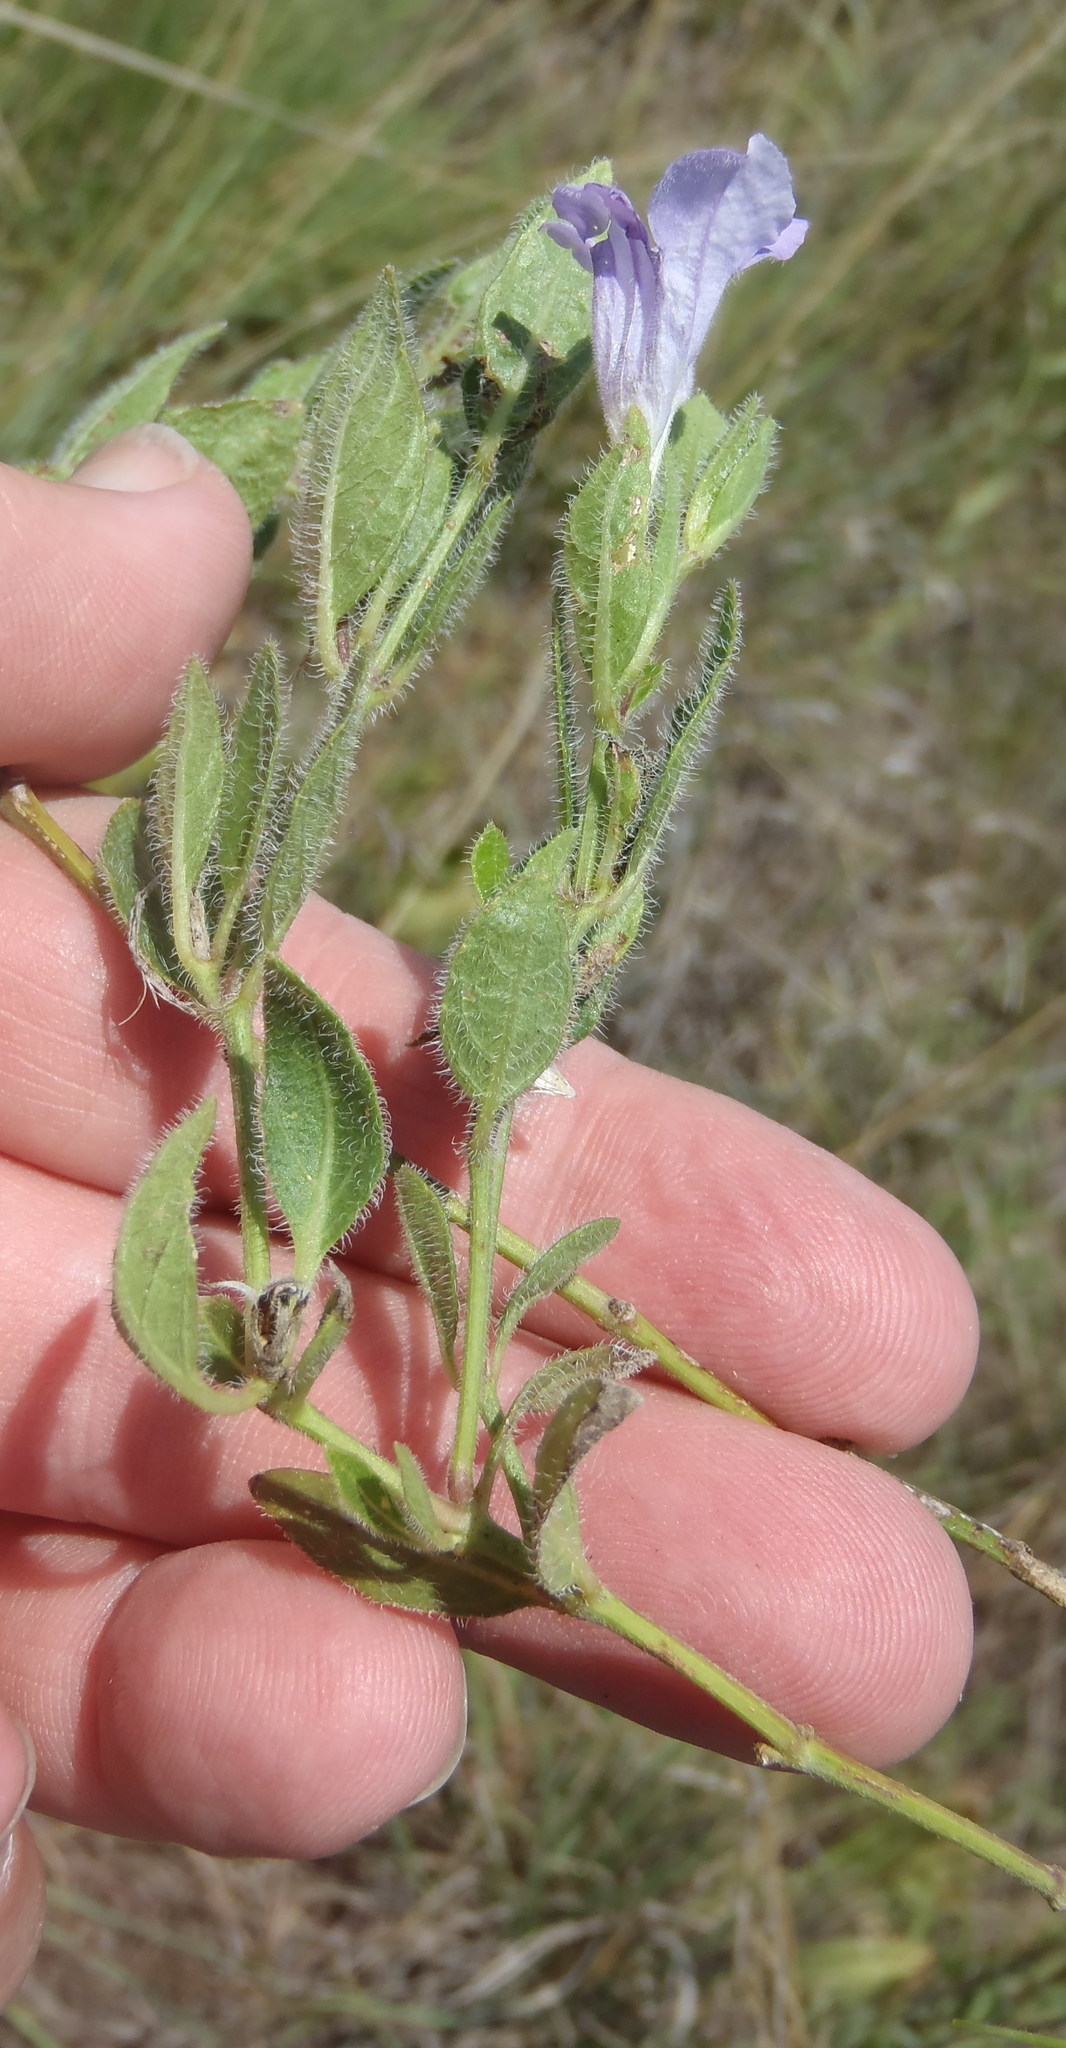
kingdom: Plantae
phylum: Tracheophyta
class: Magnoliopsida
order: Lamiales
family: Acanthaceae
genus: Ruellia
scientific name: Ruellia cordata
